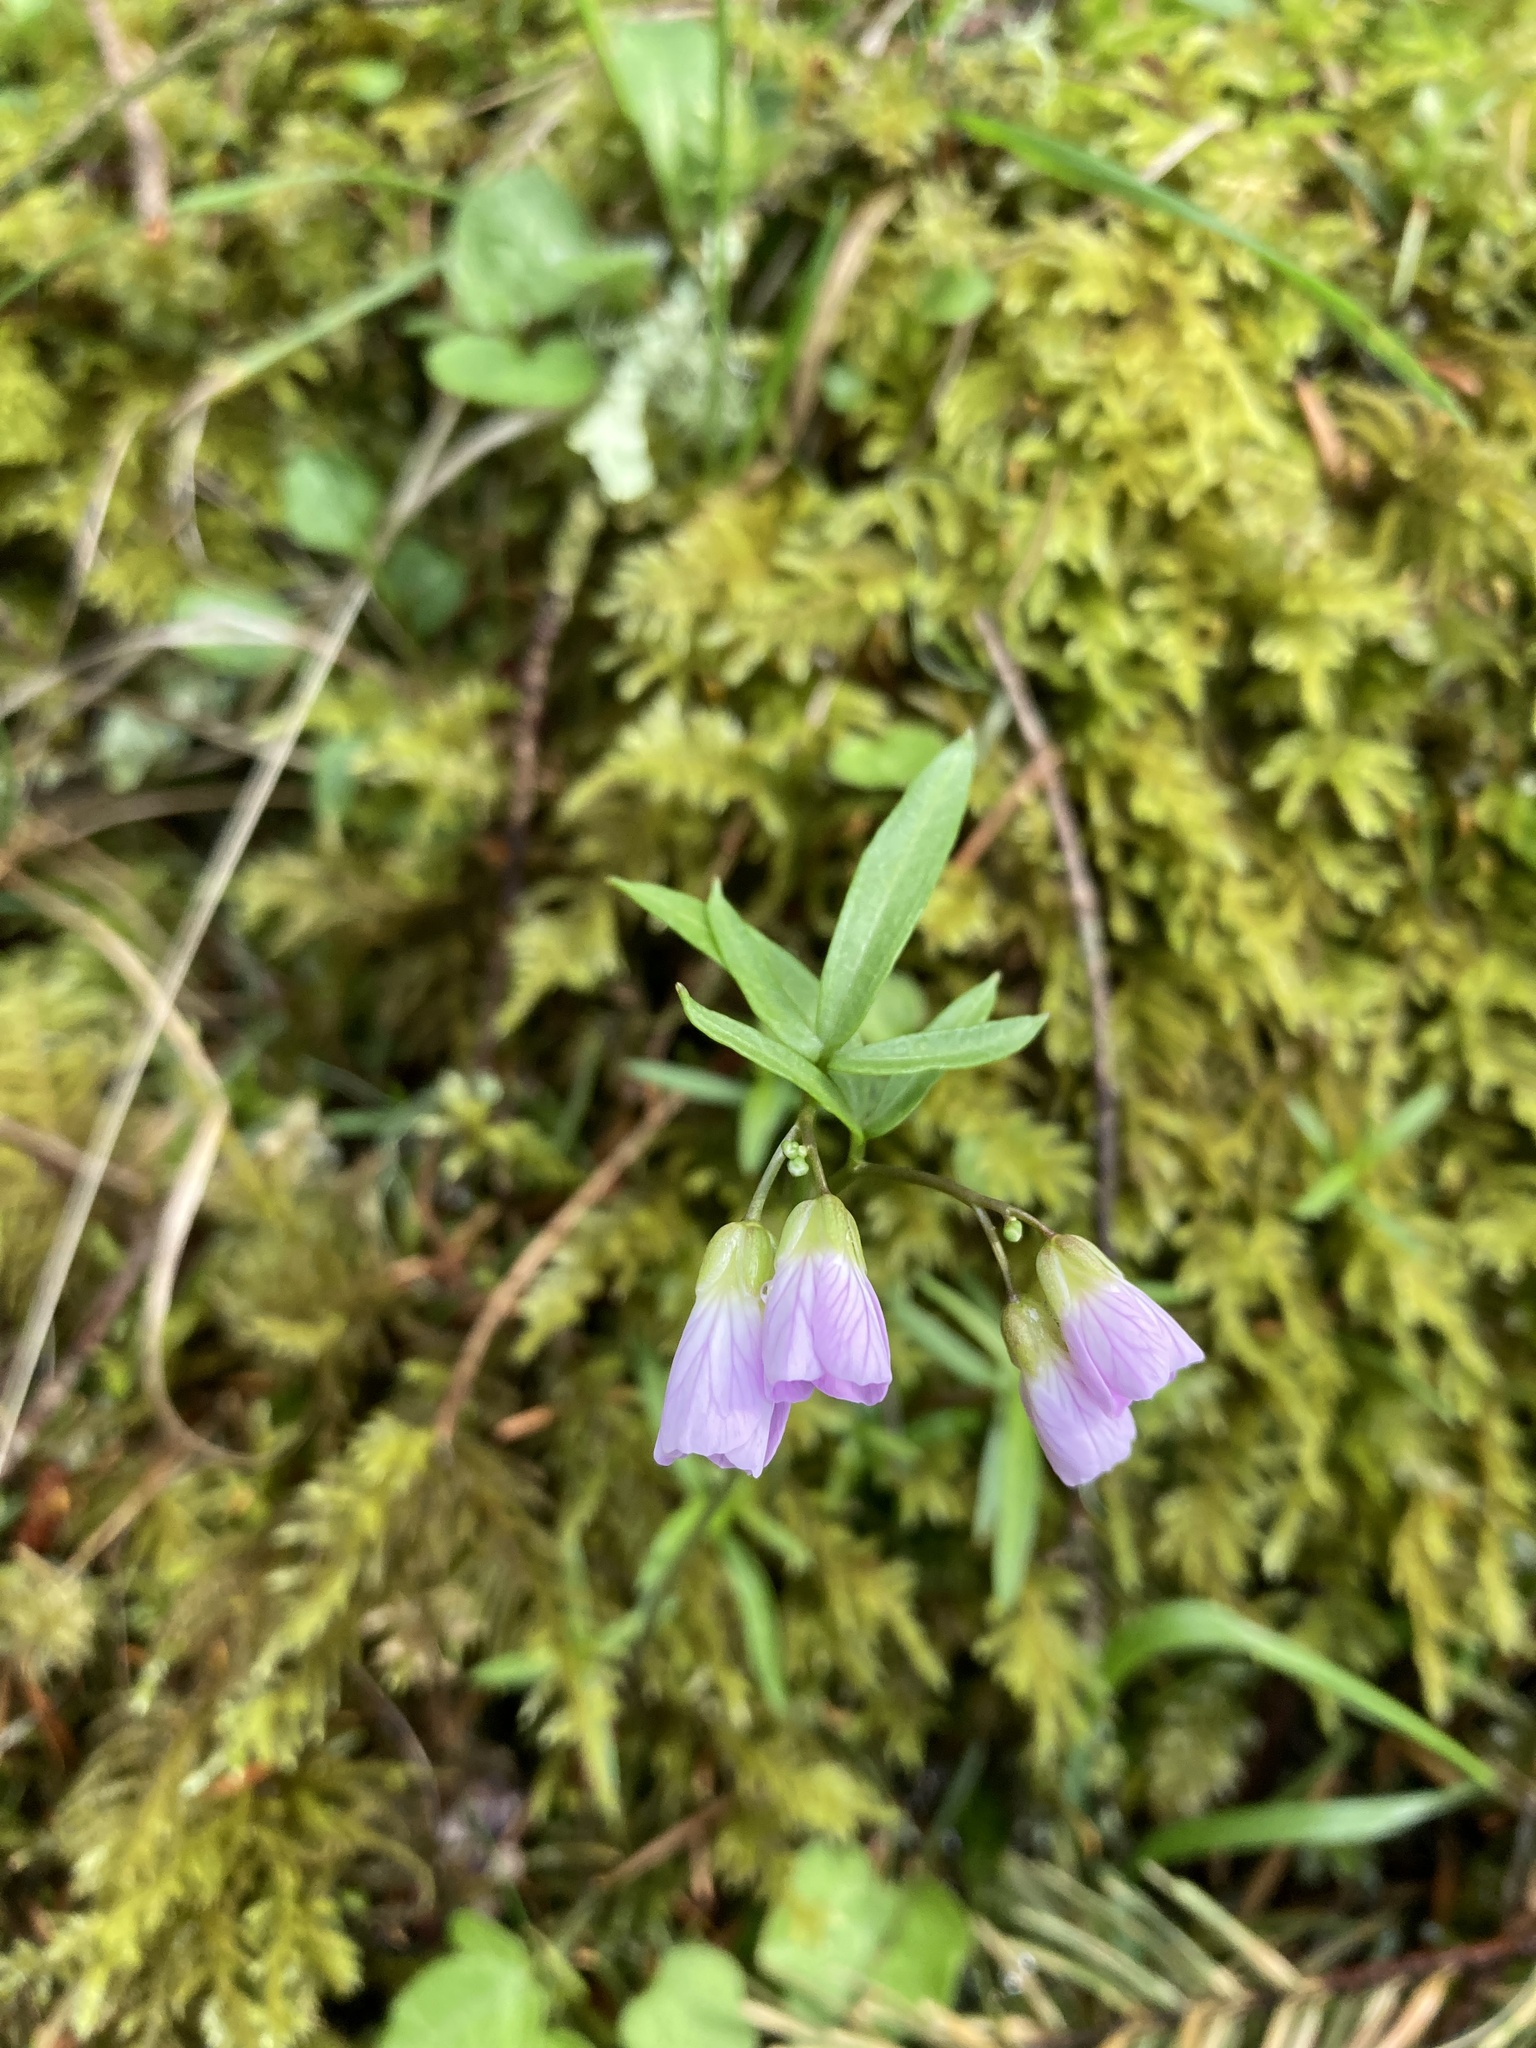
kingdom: Plantae
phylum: Tracheophyta
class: Magnoliopsida
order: Brassicales
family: Brassicaceae
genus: Cardamine
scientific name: Cardamine nuttallii
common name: Nuttall's toothwort
